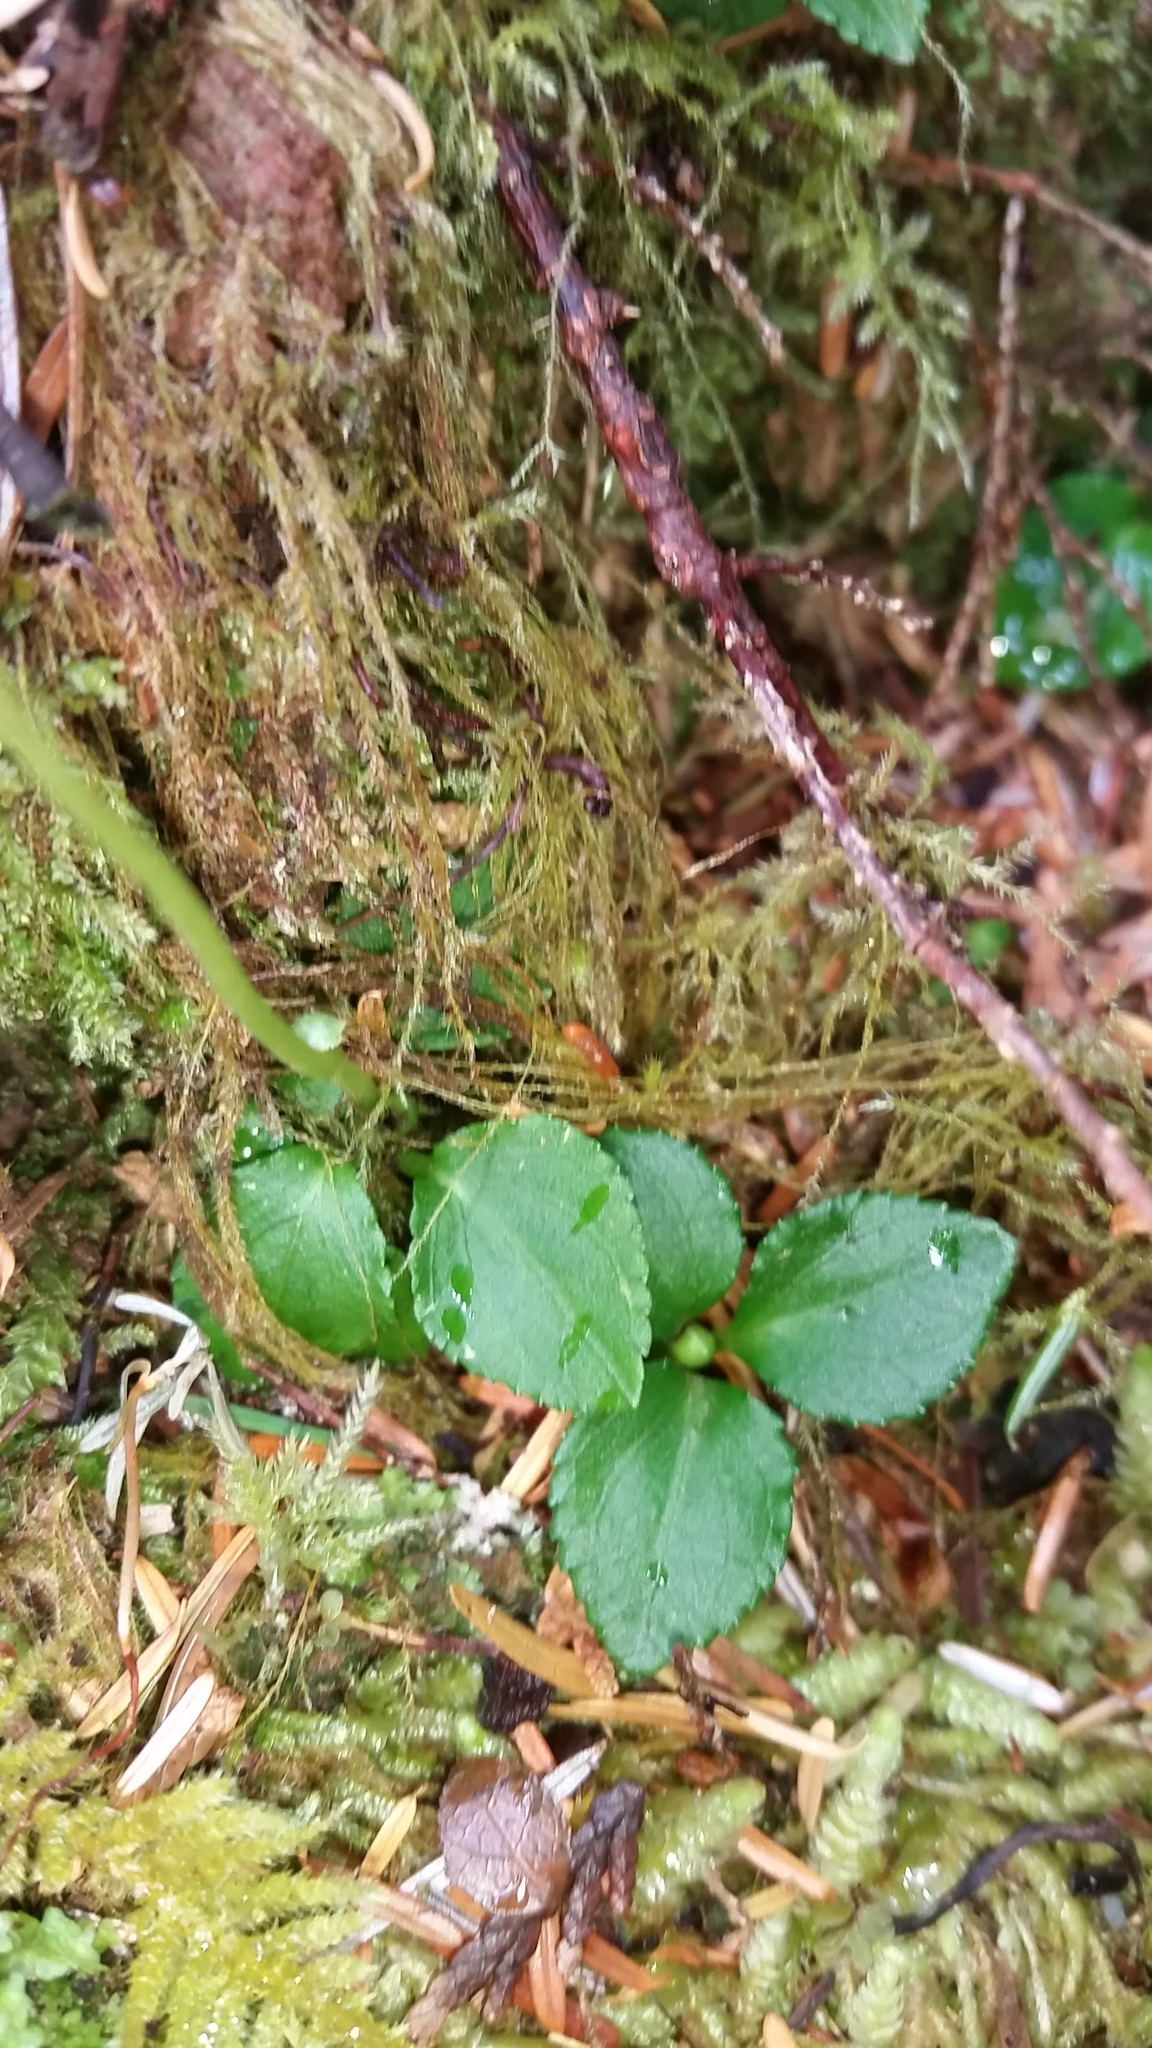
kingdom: Plantae
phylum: Tracheophyta
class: Magnoliopsida
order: Ericales
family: Ericaceae
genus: Moneses
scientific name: Moneses uniflora
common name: One-flowered wintergreen
